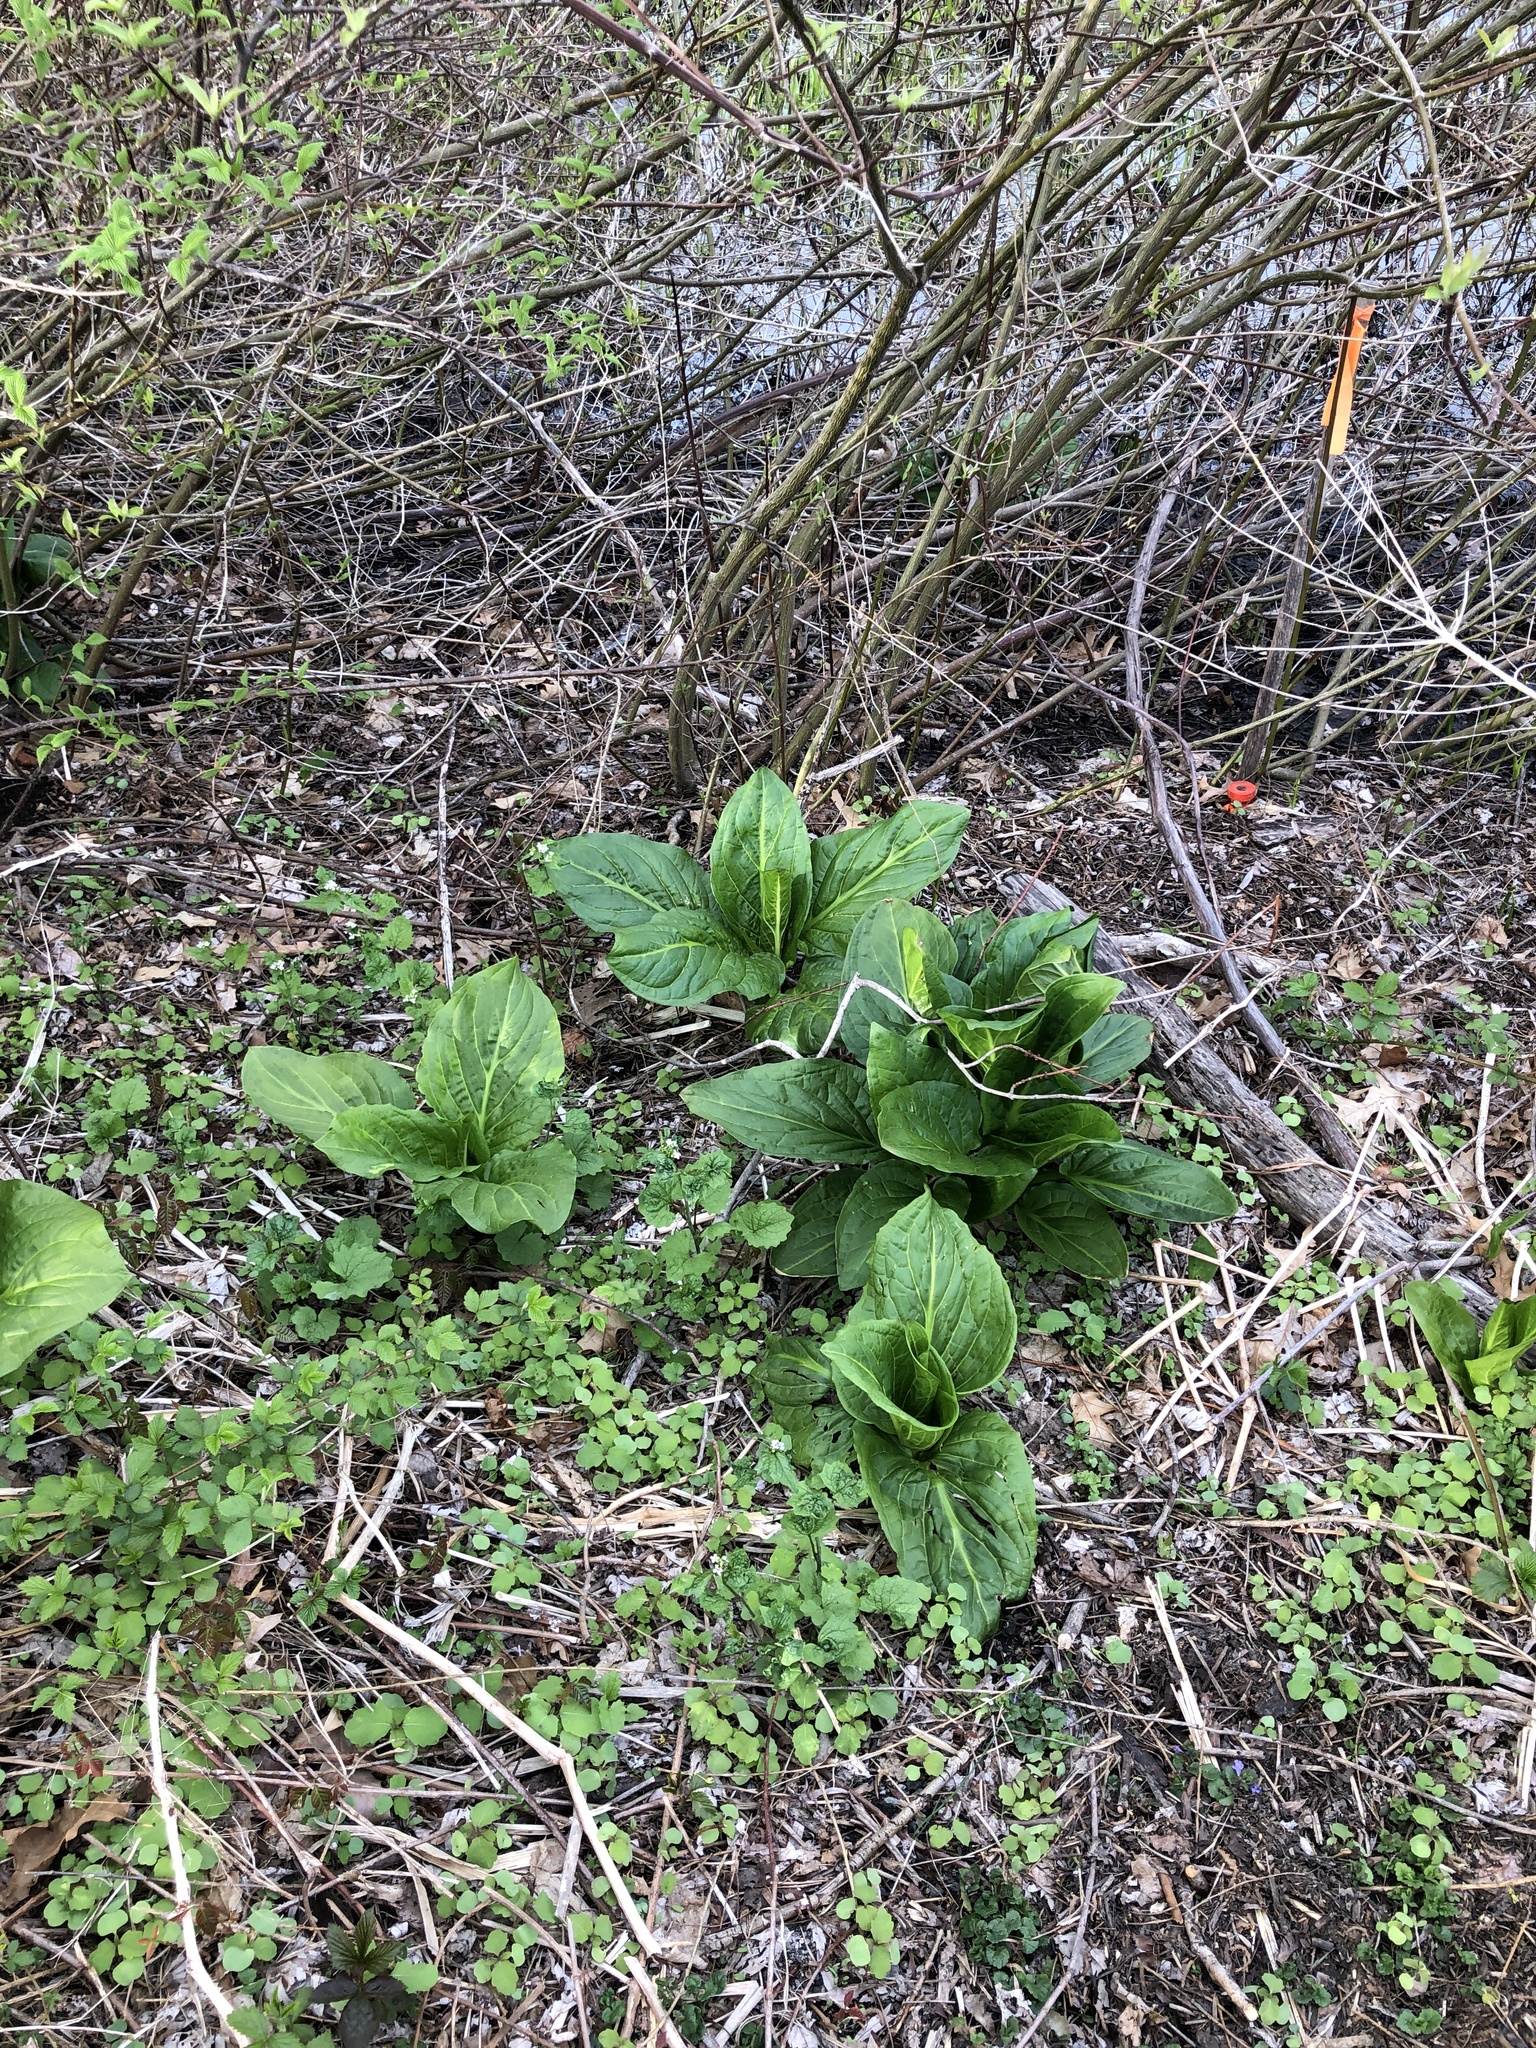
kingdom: Plantae
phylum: Tracheophyta
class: Liliopsida
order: Alismatales
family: Araceae
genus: Symplocarpus
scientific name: Symplocarpus foetidus
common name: Eastern skunk cabbage
